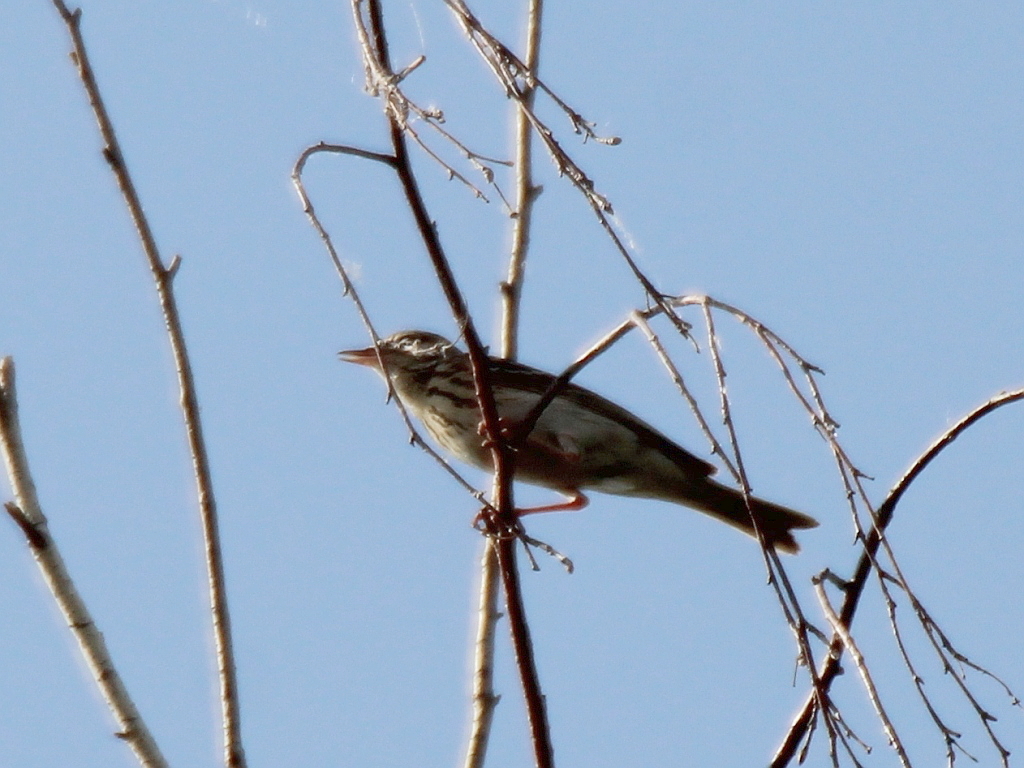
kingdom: Animalia
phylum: Chordata
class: Aves
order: Passeriformes
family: Motacillidae
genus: Anthus
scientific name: Anthus trivialis
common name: Tree pipit
